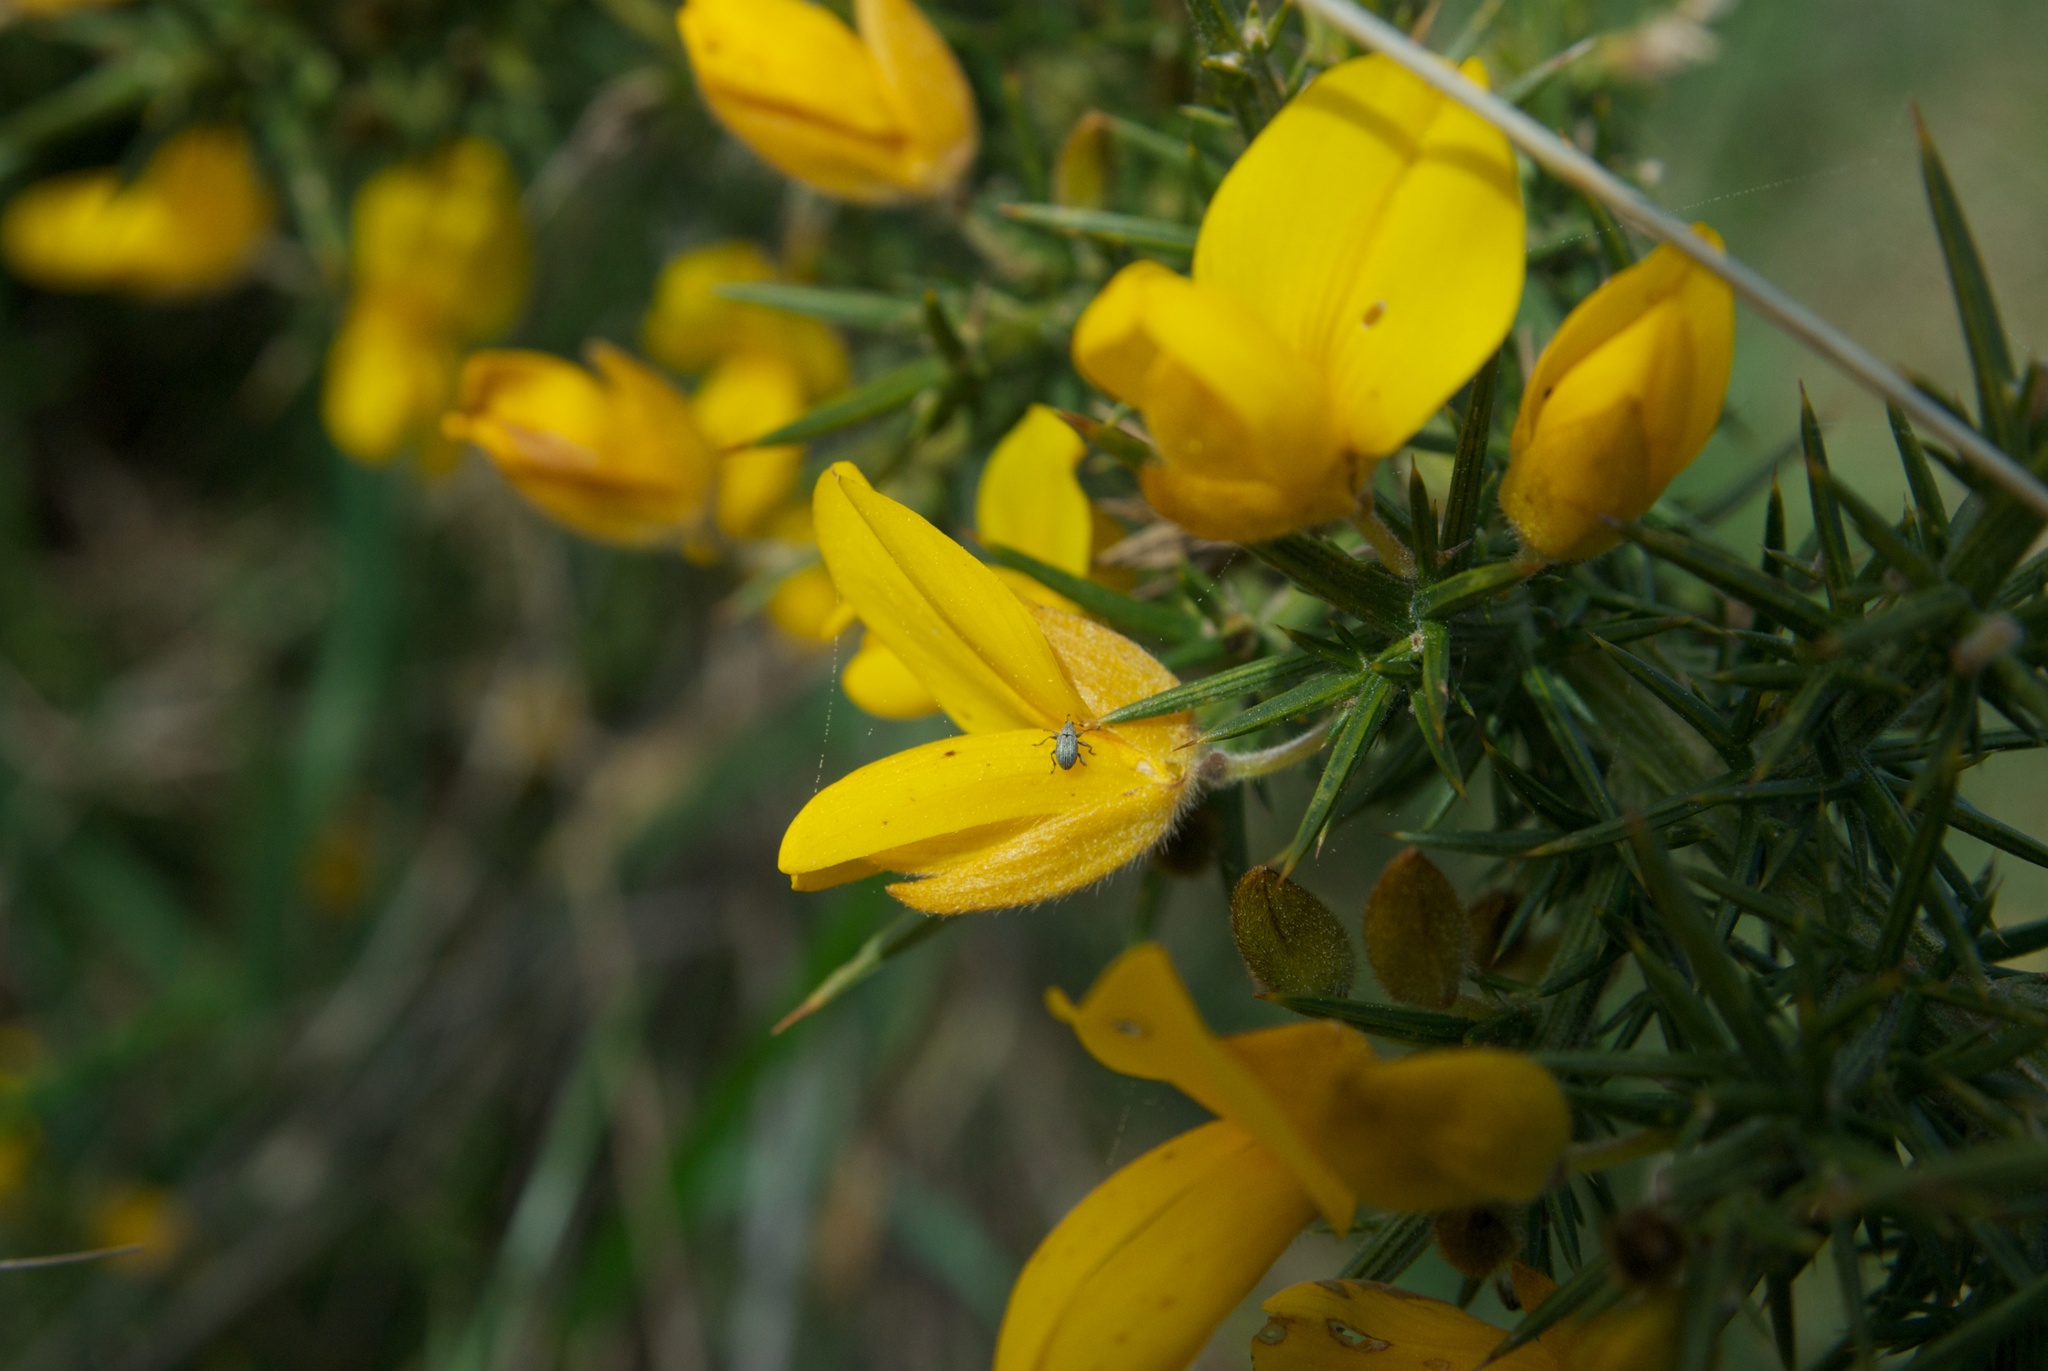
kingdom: Animalia
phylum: Arthropoda
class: Insecta
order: Coleoptera
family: Brentidae
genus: Exapion
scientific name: Exapion ulicis
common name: Gorse seed weevil
